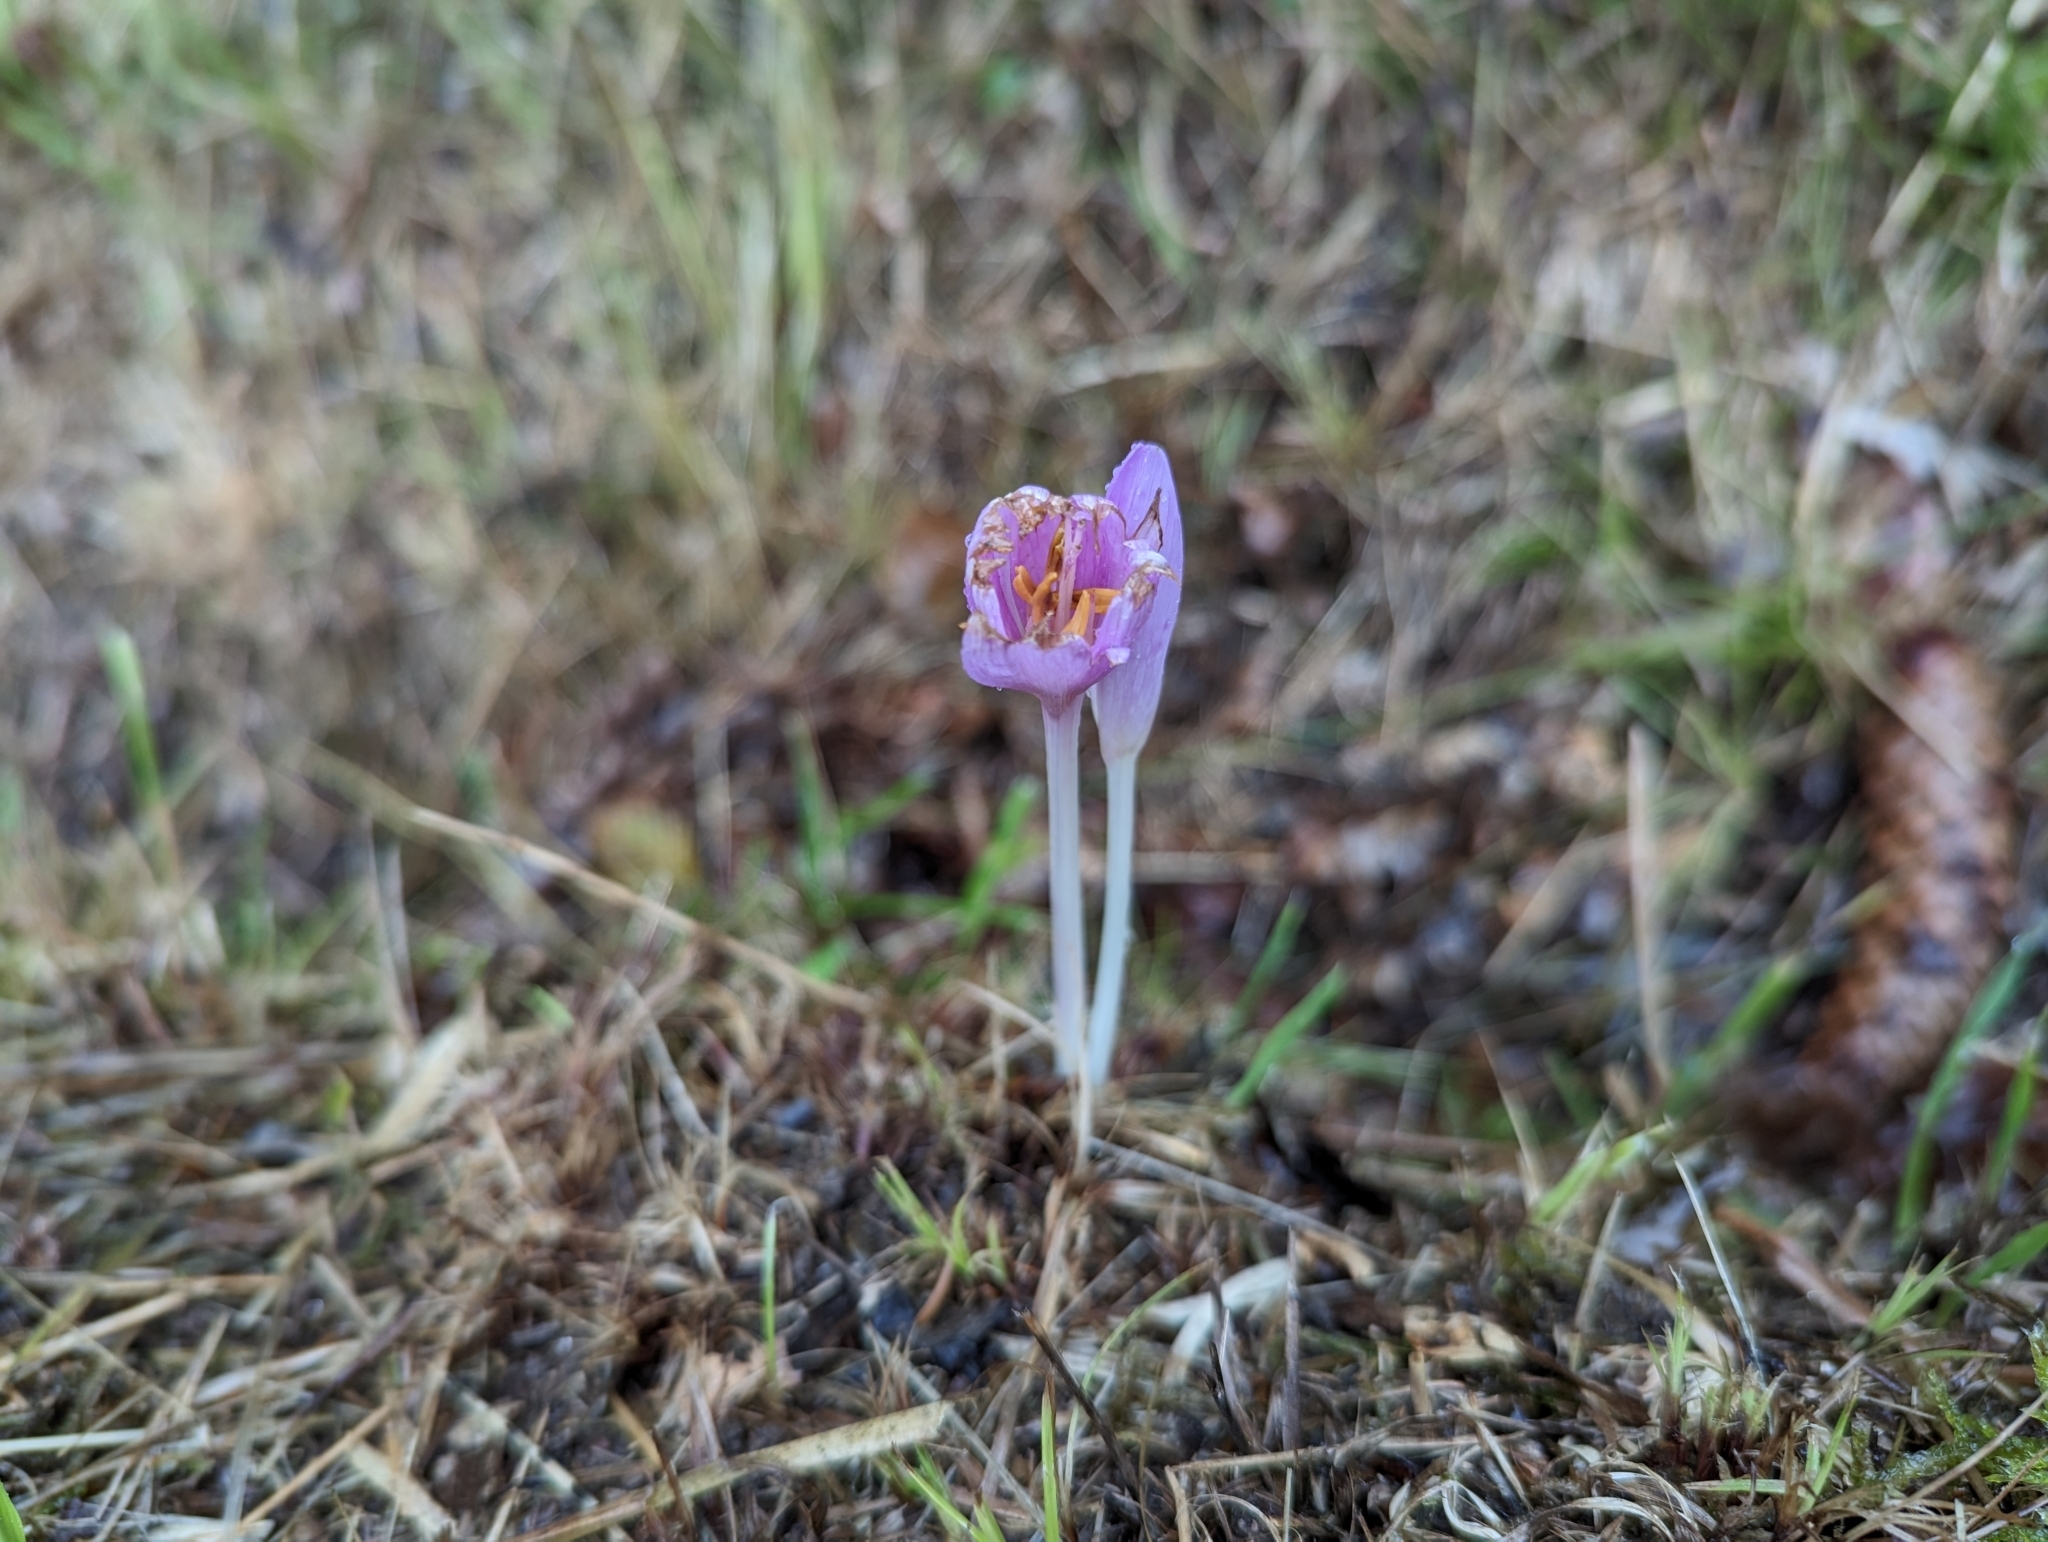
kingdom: Plantae
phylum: Tracheophyta
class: Liliopsida
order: Liliales
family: Colchicaceae
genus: Colchicum
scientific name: Colchicum autumnale
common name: Autumn crocus
